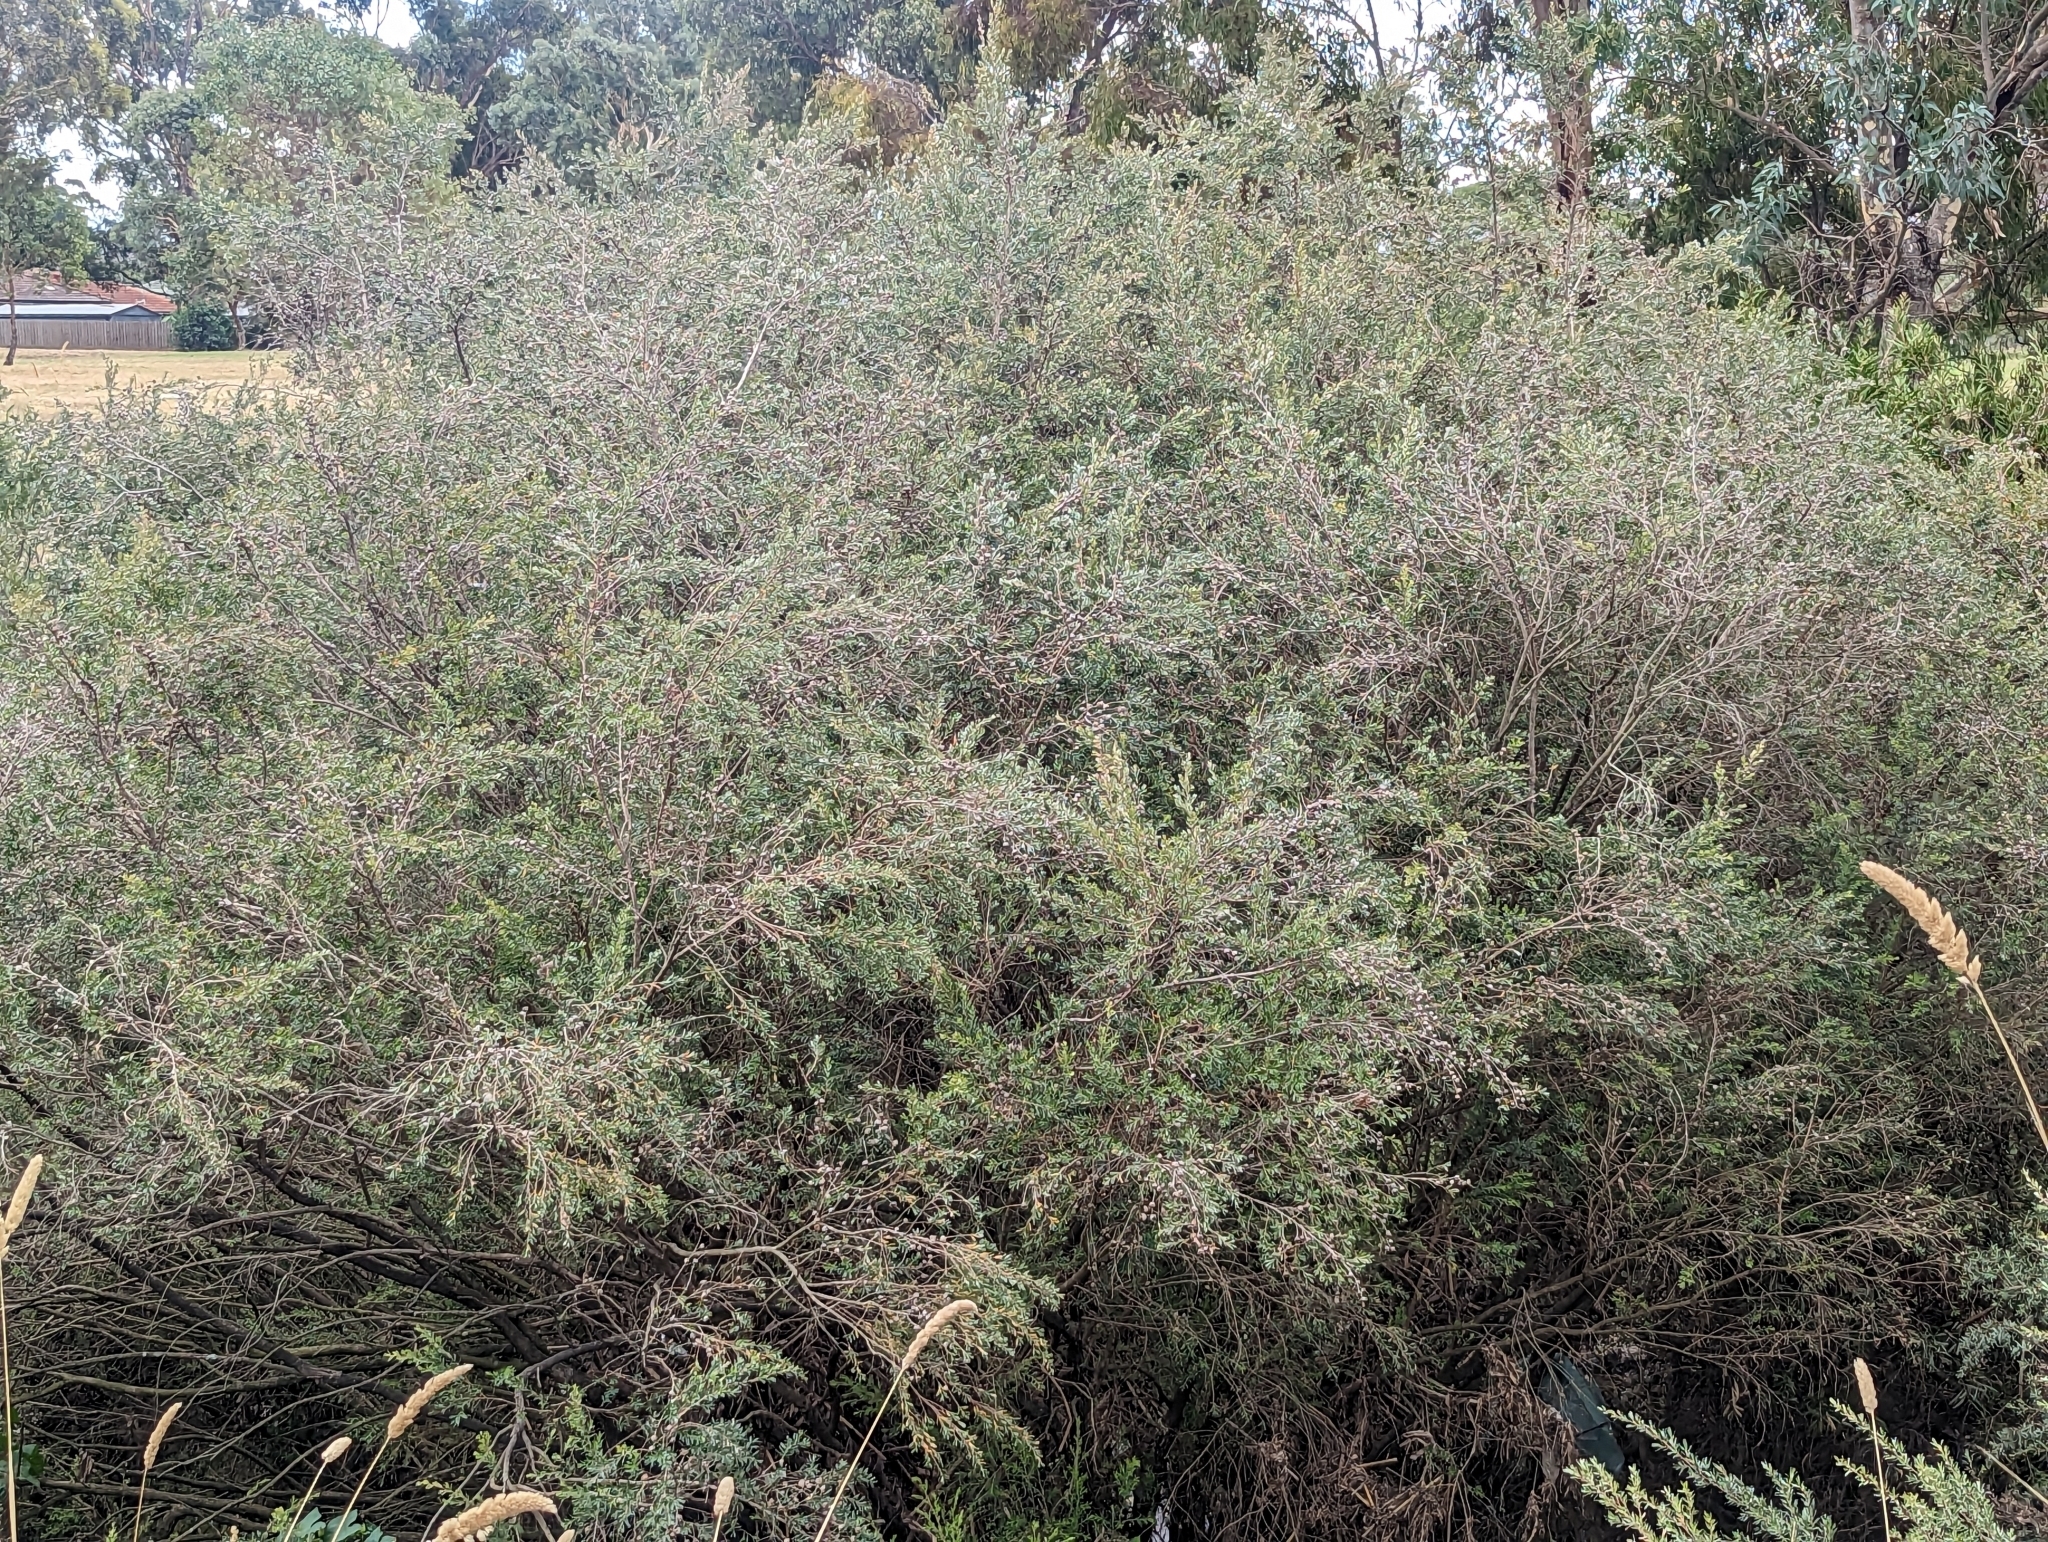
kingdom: Plantae
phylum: Tracheophyta
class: Magnoliopsida
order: Myrtales
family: Myrtaceae
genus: Leptospermum
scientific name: Leptospermum lanigerum
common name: Woolly tea-tree
